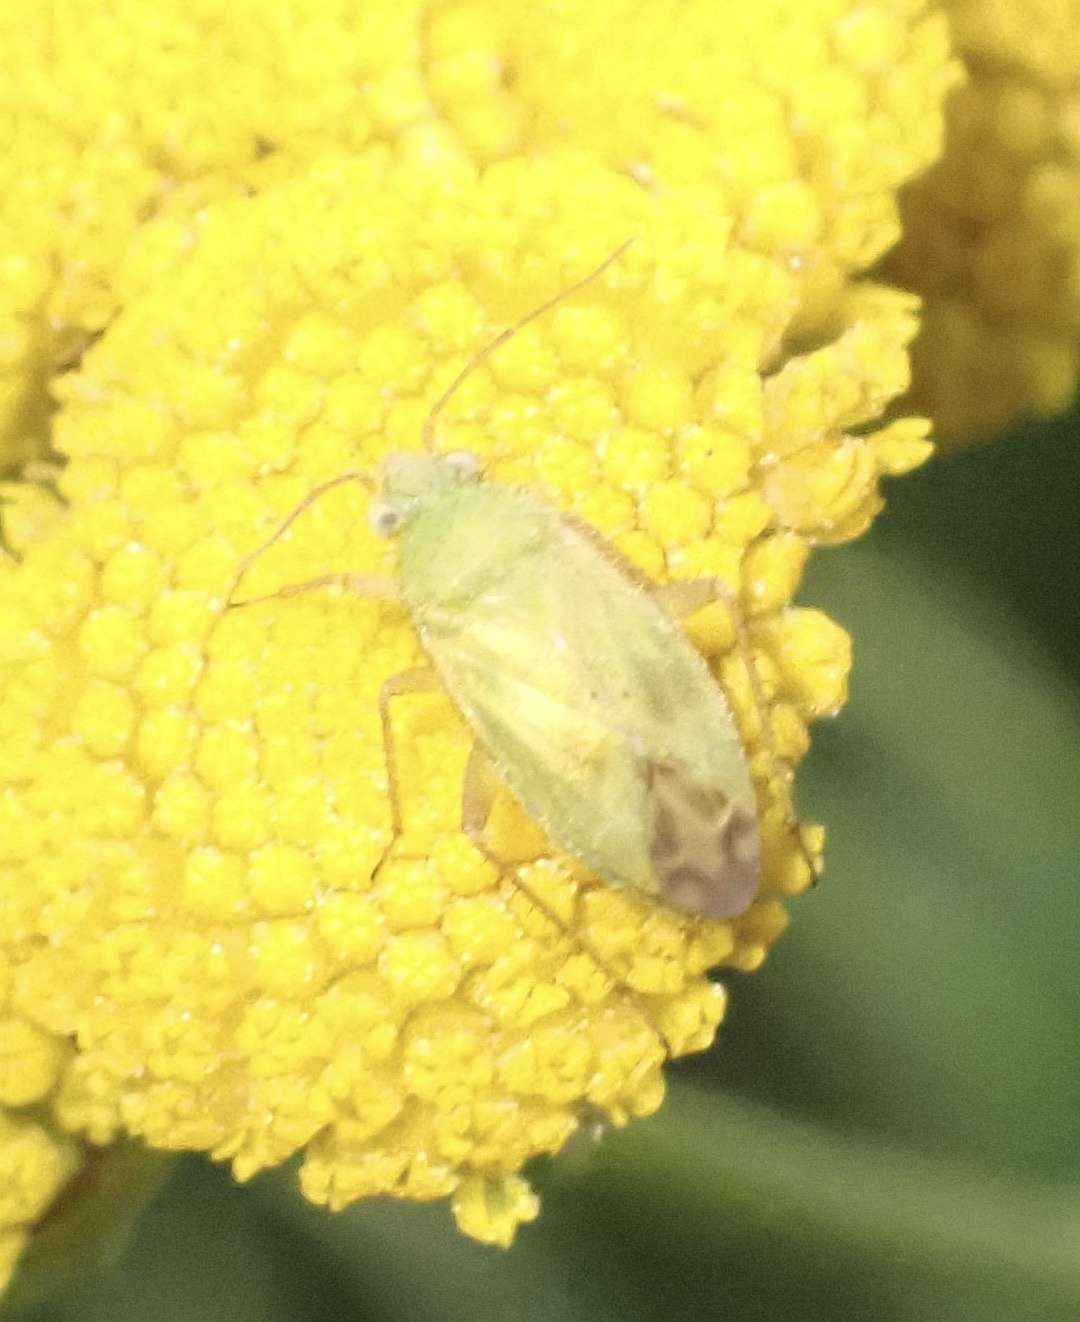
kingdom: Animalia
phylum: Arthropoda
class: Insecta
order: Hemiptera
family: Miridae
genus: Megalocoleus
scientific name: Megalocoleus tanaceti
